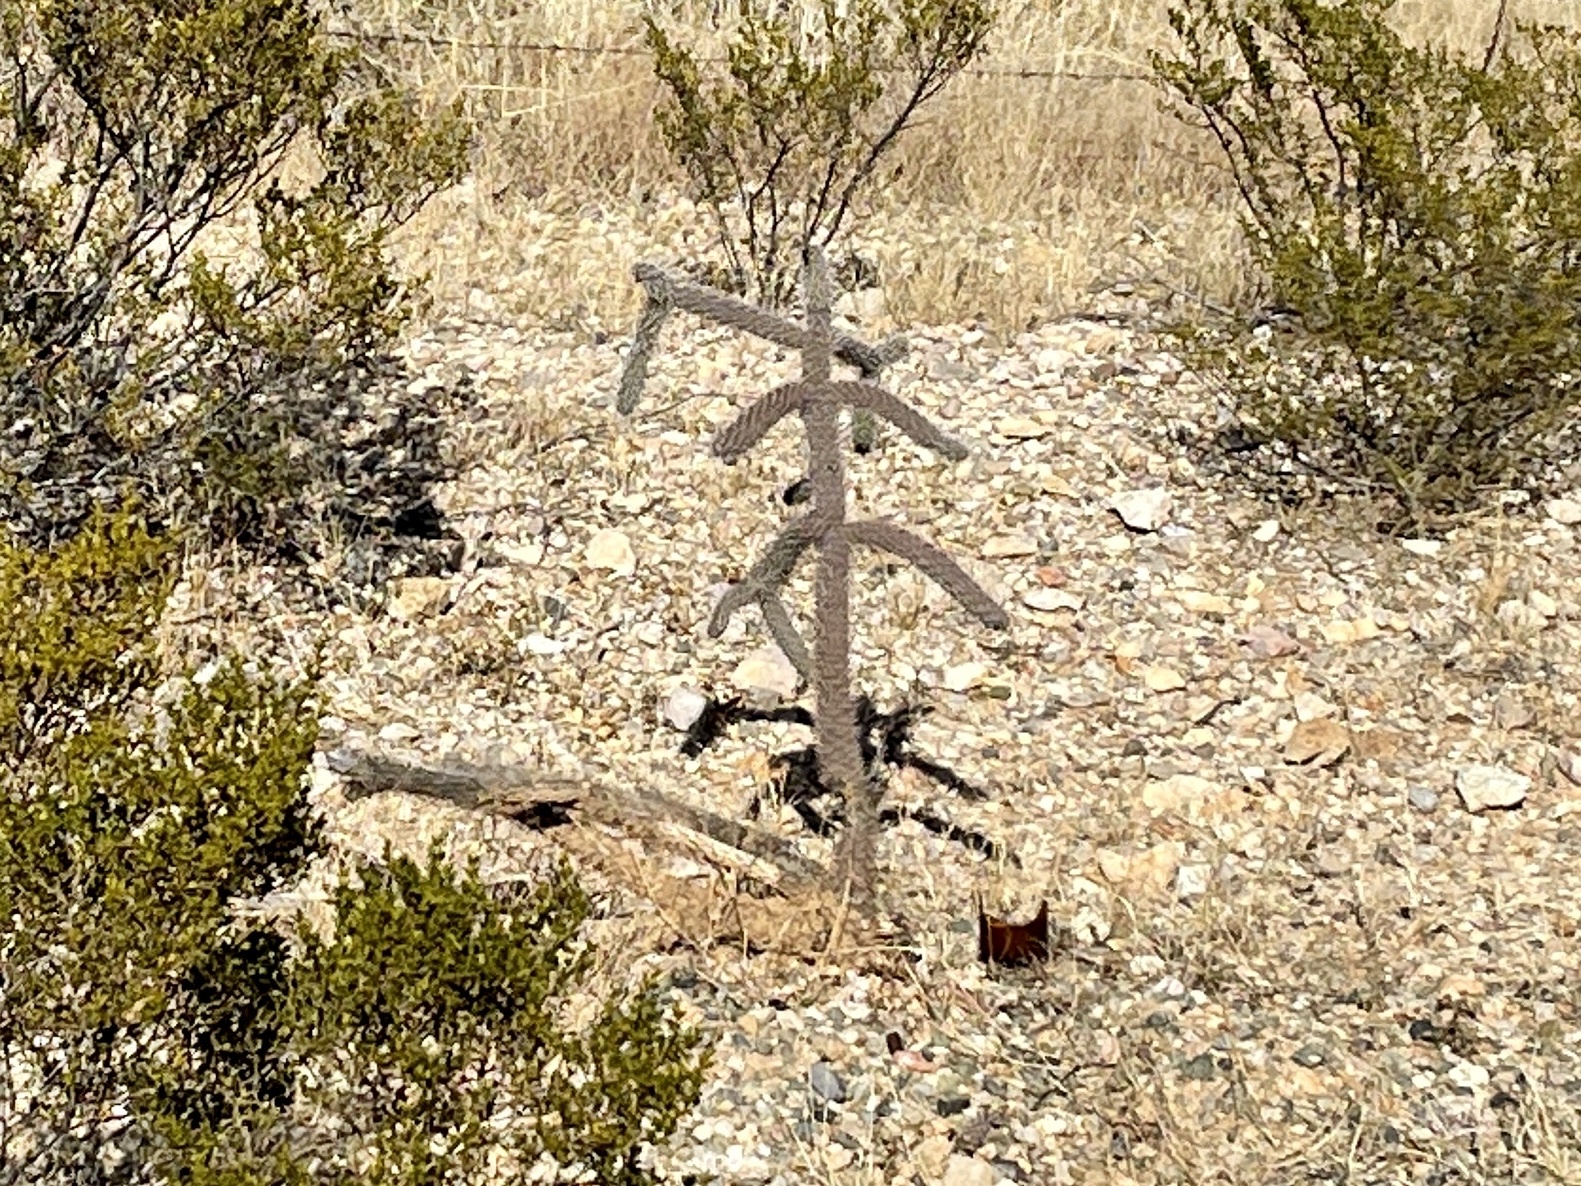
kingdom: Plantae
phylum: Tracheophyta
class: Magnoliopsida
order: Caryophyllales
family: Cactaceae
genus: Cylindropuntia
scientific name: Cylindropuntia imbricata
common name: Candelabrum cactus
